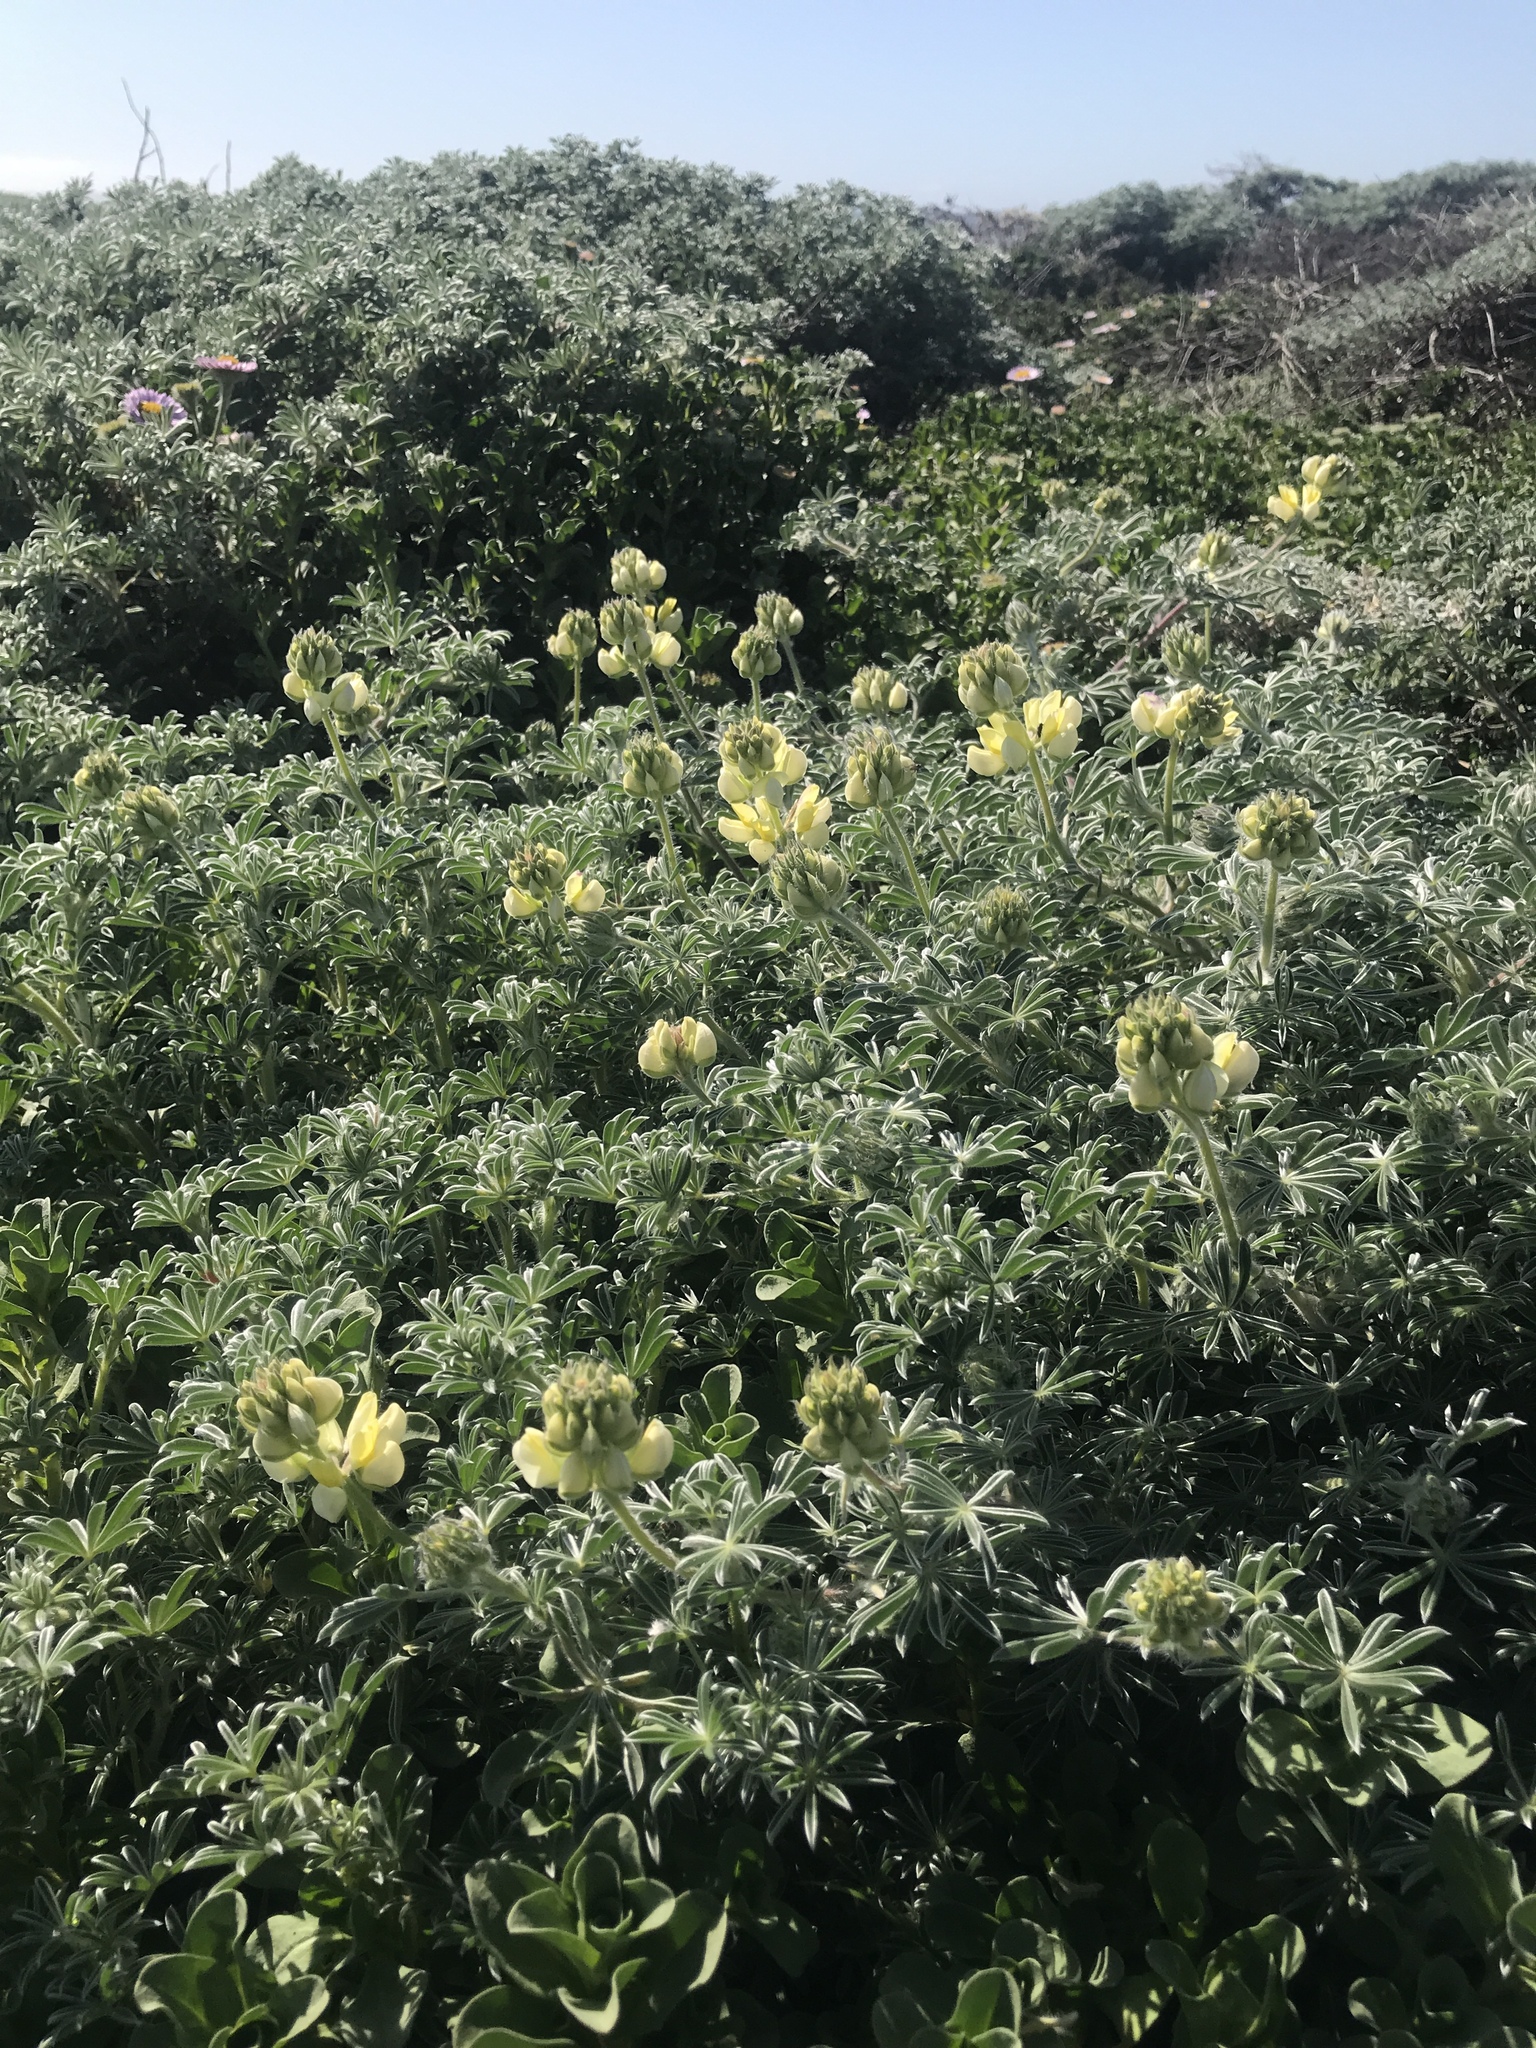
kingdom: Plantae
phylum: Tracheophyta
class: Magnoliopsida
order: Fabales
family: Fabaceae
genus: Lupinus
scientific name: Lupinus arboreus
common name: Yellow bush lupine
